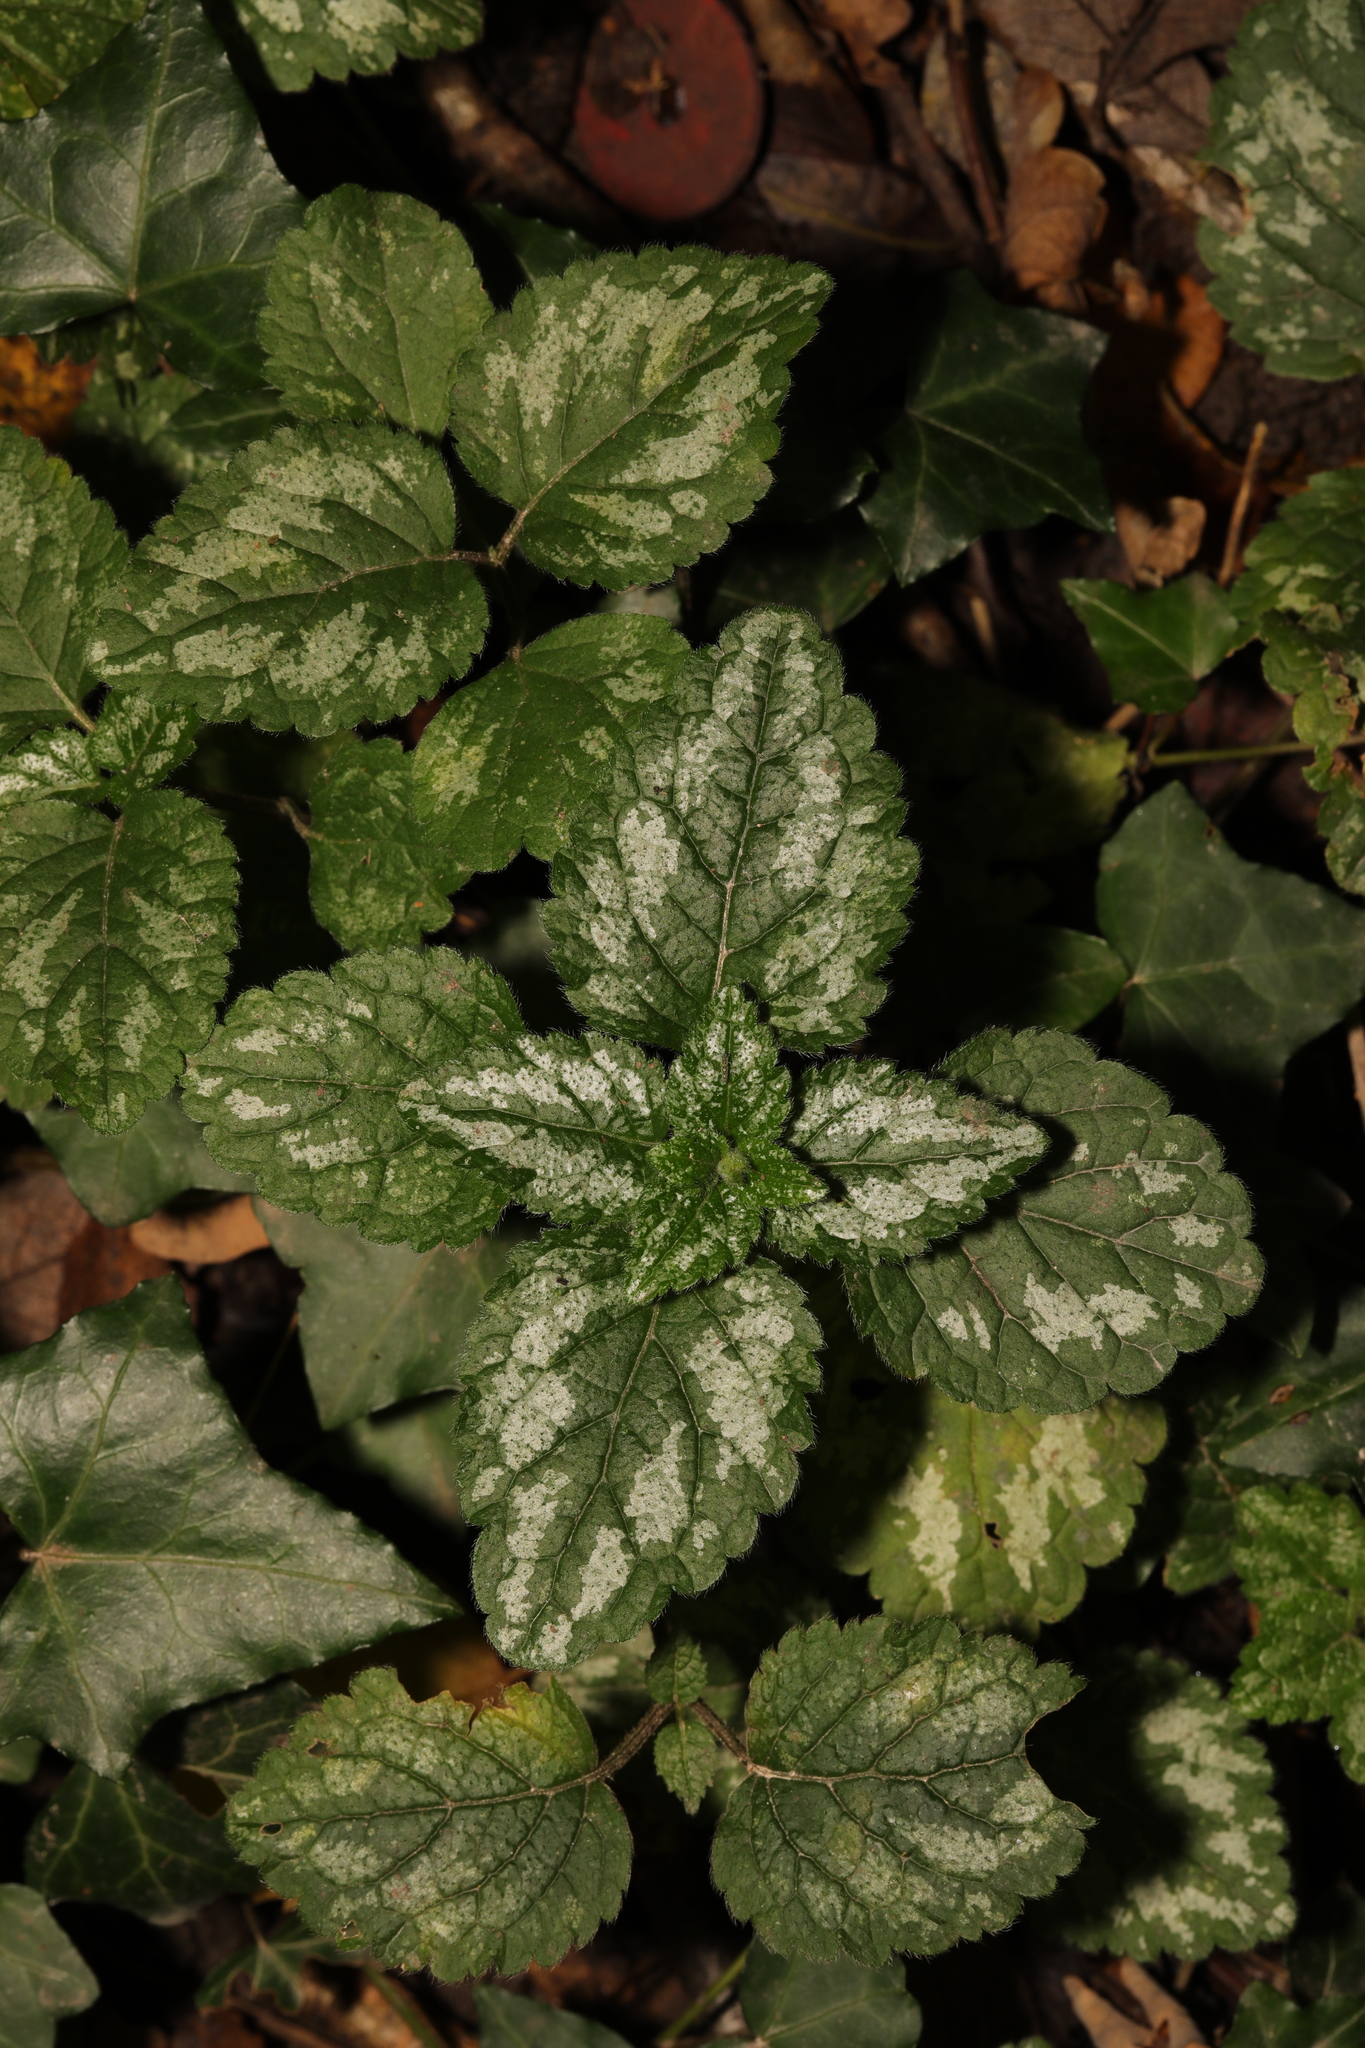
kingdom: Plantae
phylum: Tracheophyta
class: Magnoliopsida
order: Lamiales
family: Lamiaceae
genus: Lamium
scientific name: Lamium galeobdolon
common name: Yellow archangel
